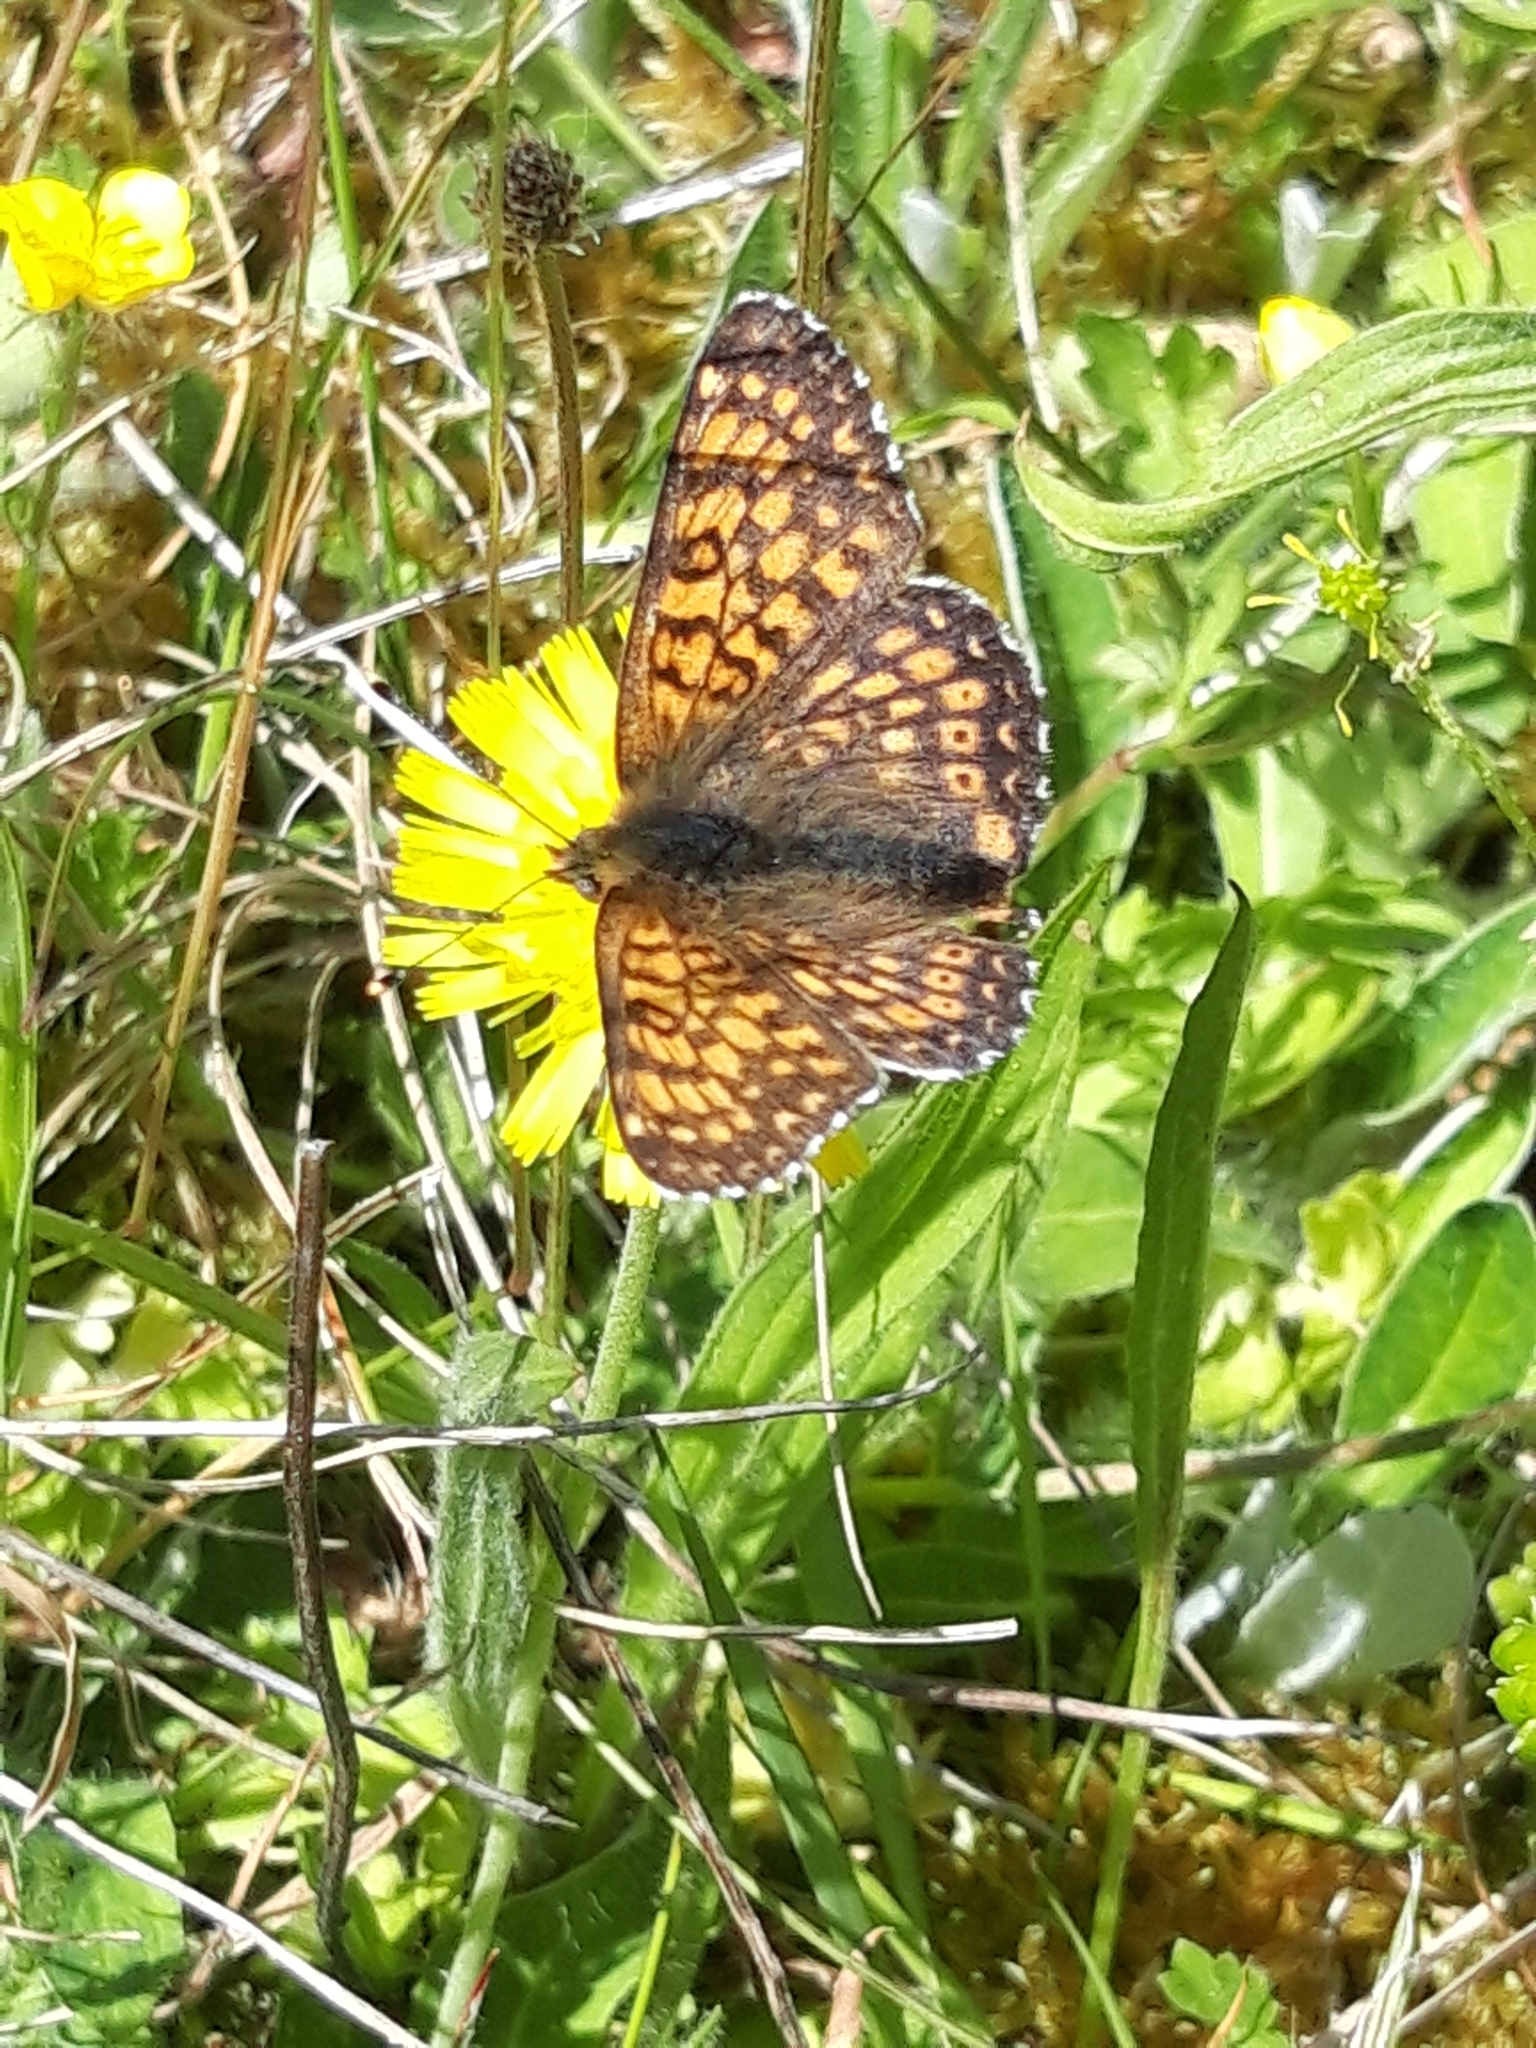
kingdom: Animalia
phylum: Arthropoda
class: Insecta
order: Lepidoptera
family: Nymphalidae
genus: Melitaea
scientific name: Melitaea cinxia
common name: Glanville fritillary
